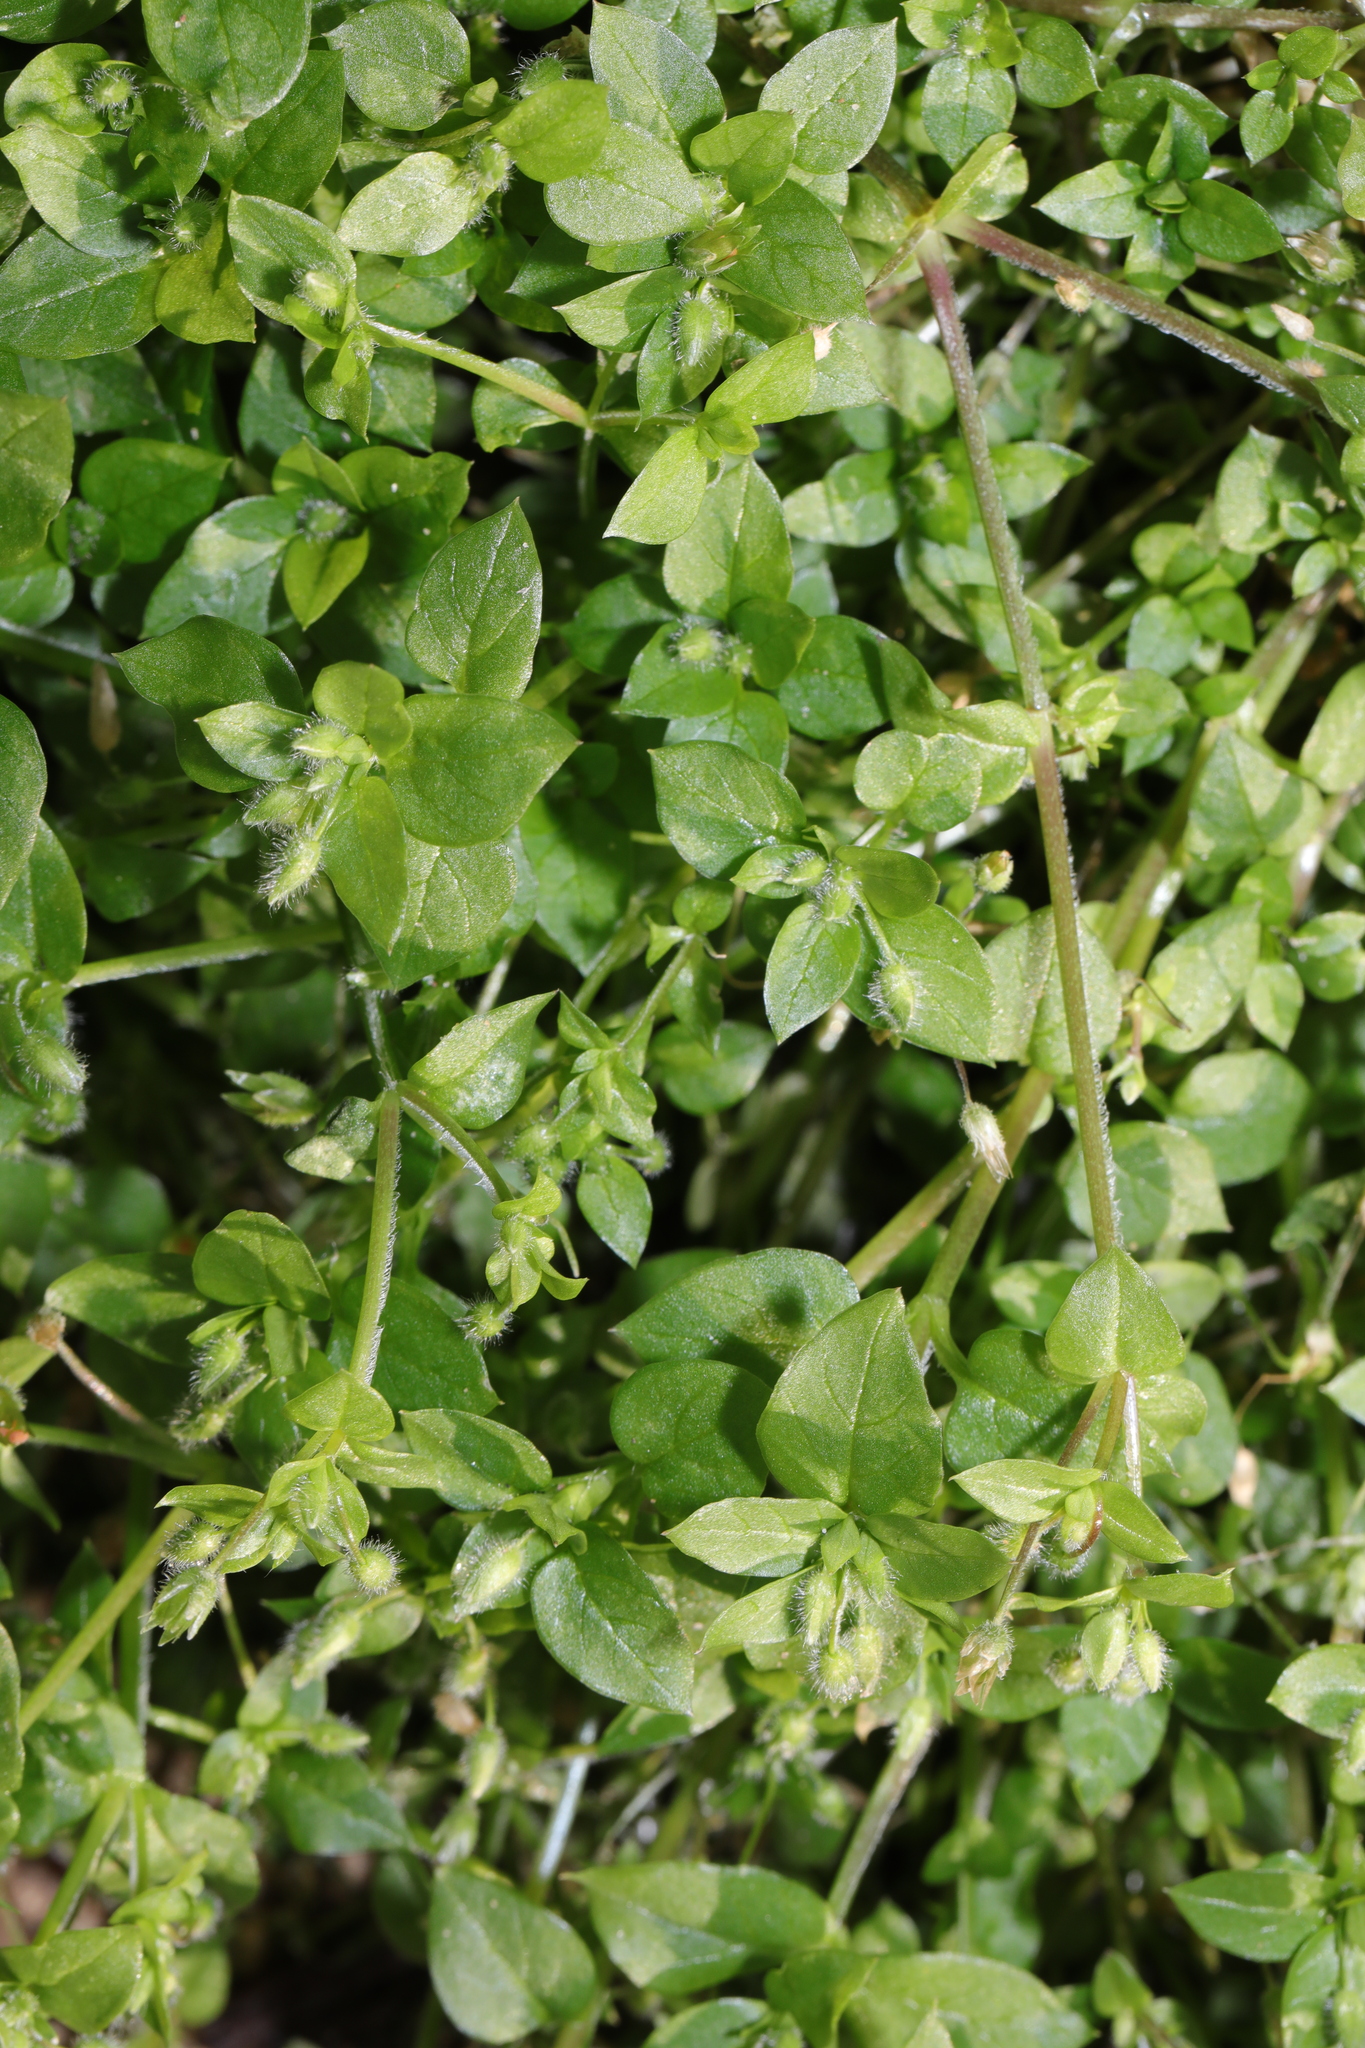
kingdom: Plantae
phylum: Tracheophyta
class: Magnoliopsida
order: Caryophyllales
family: Caryophyllaceae
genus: Stellaria
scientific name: Stellaria media
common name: Common chickweed
